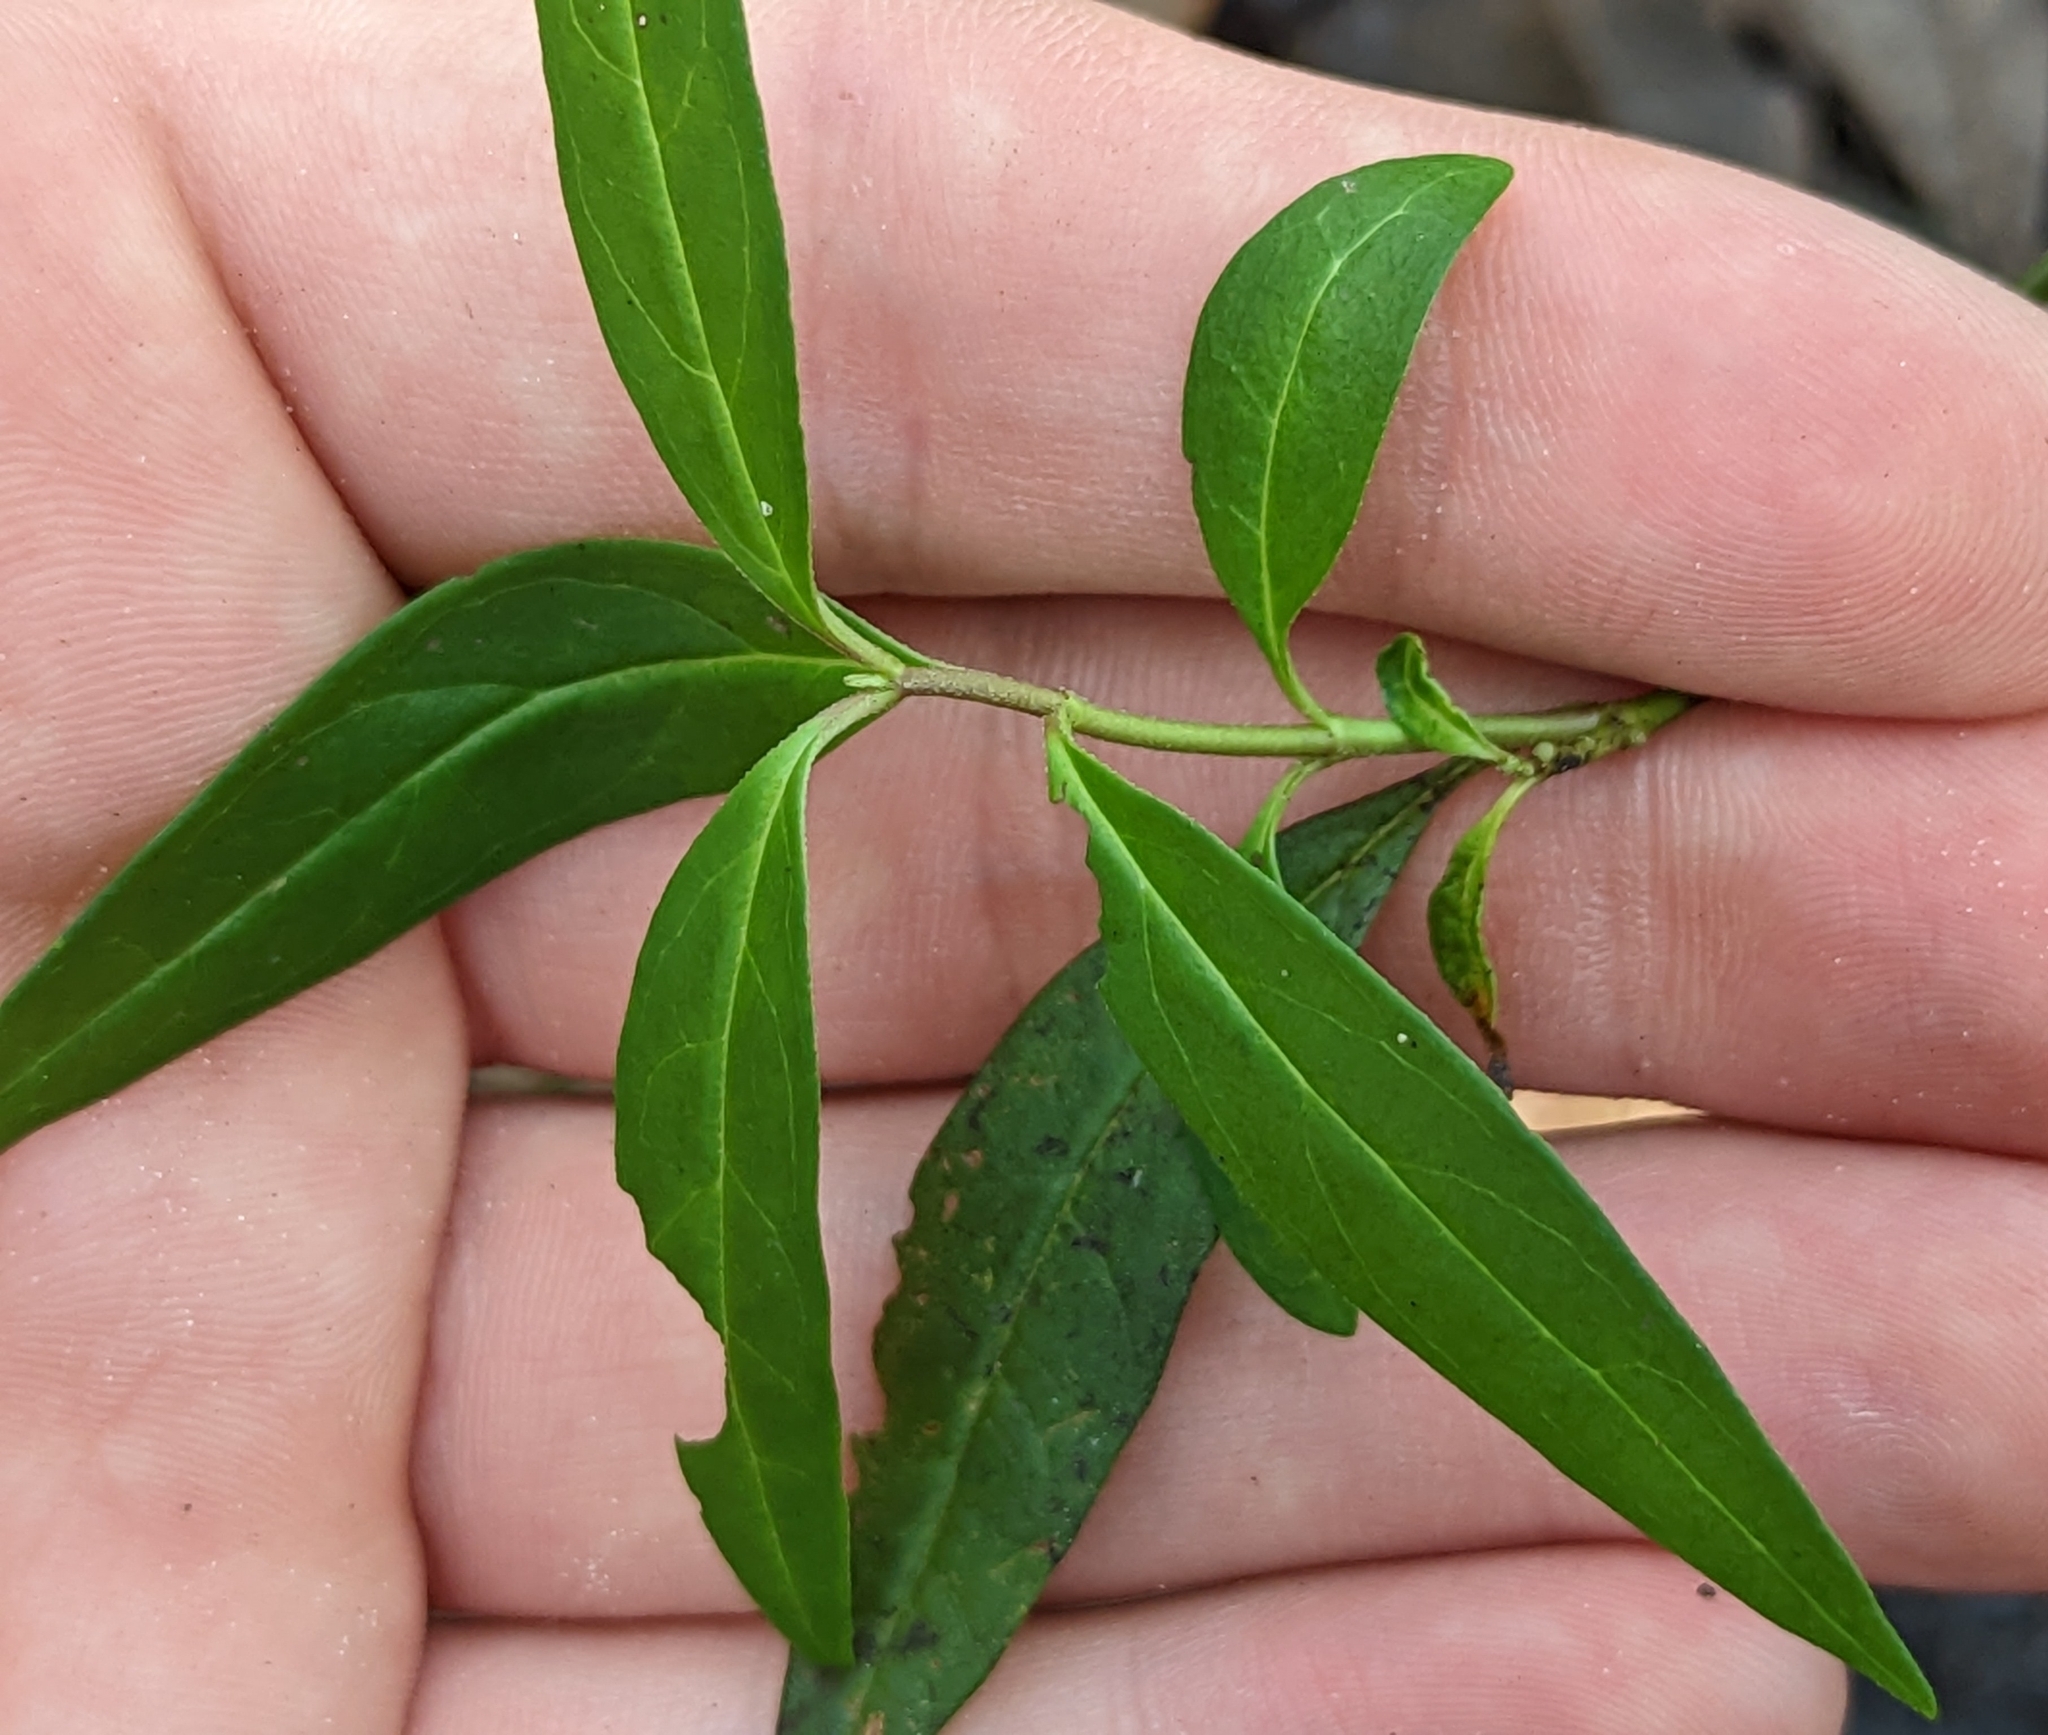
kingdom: Plantae
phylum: Tracheophyta
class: Magnoliopsida
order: Gentianales
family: Apocynaceae
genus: Asclepias
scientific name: Asclepias perennis
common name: Smooth-seed milkweed
